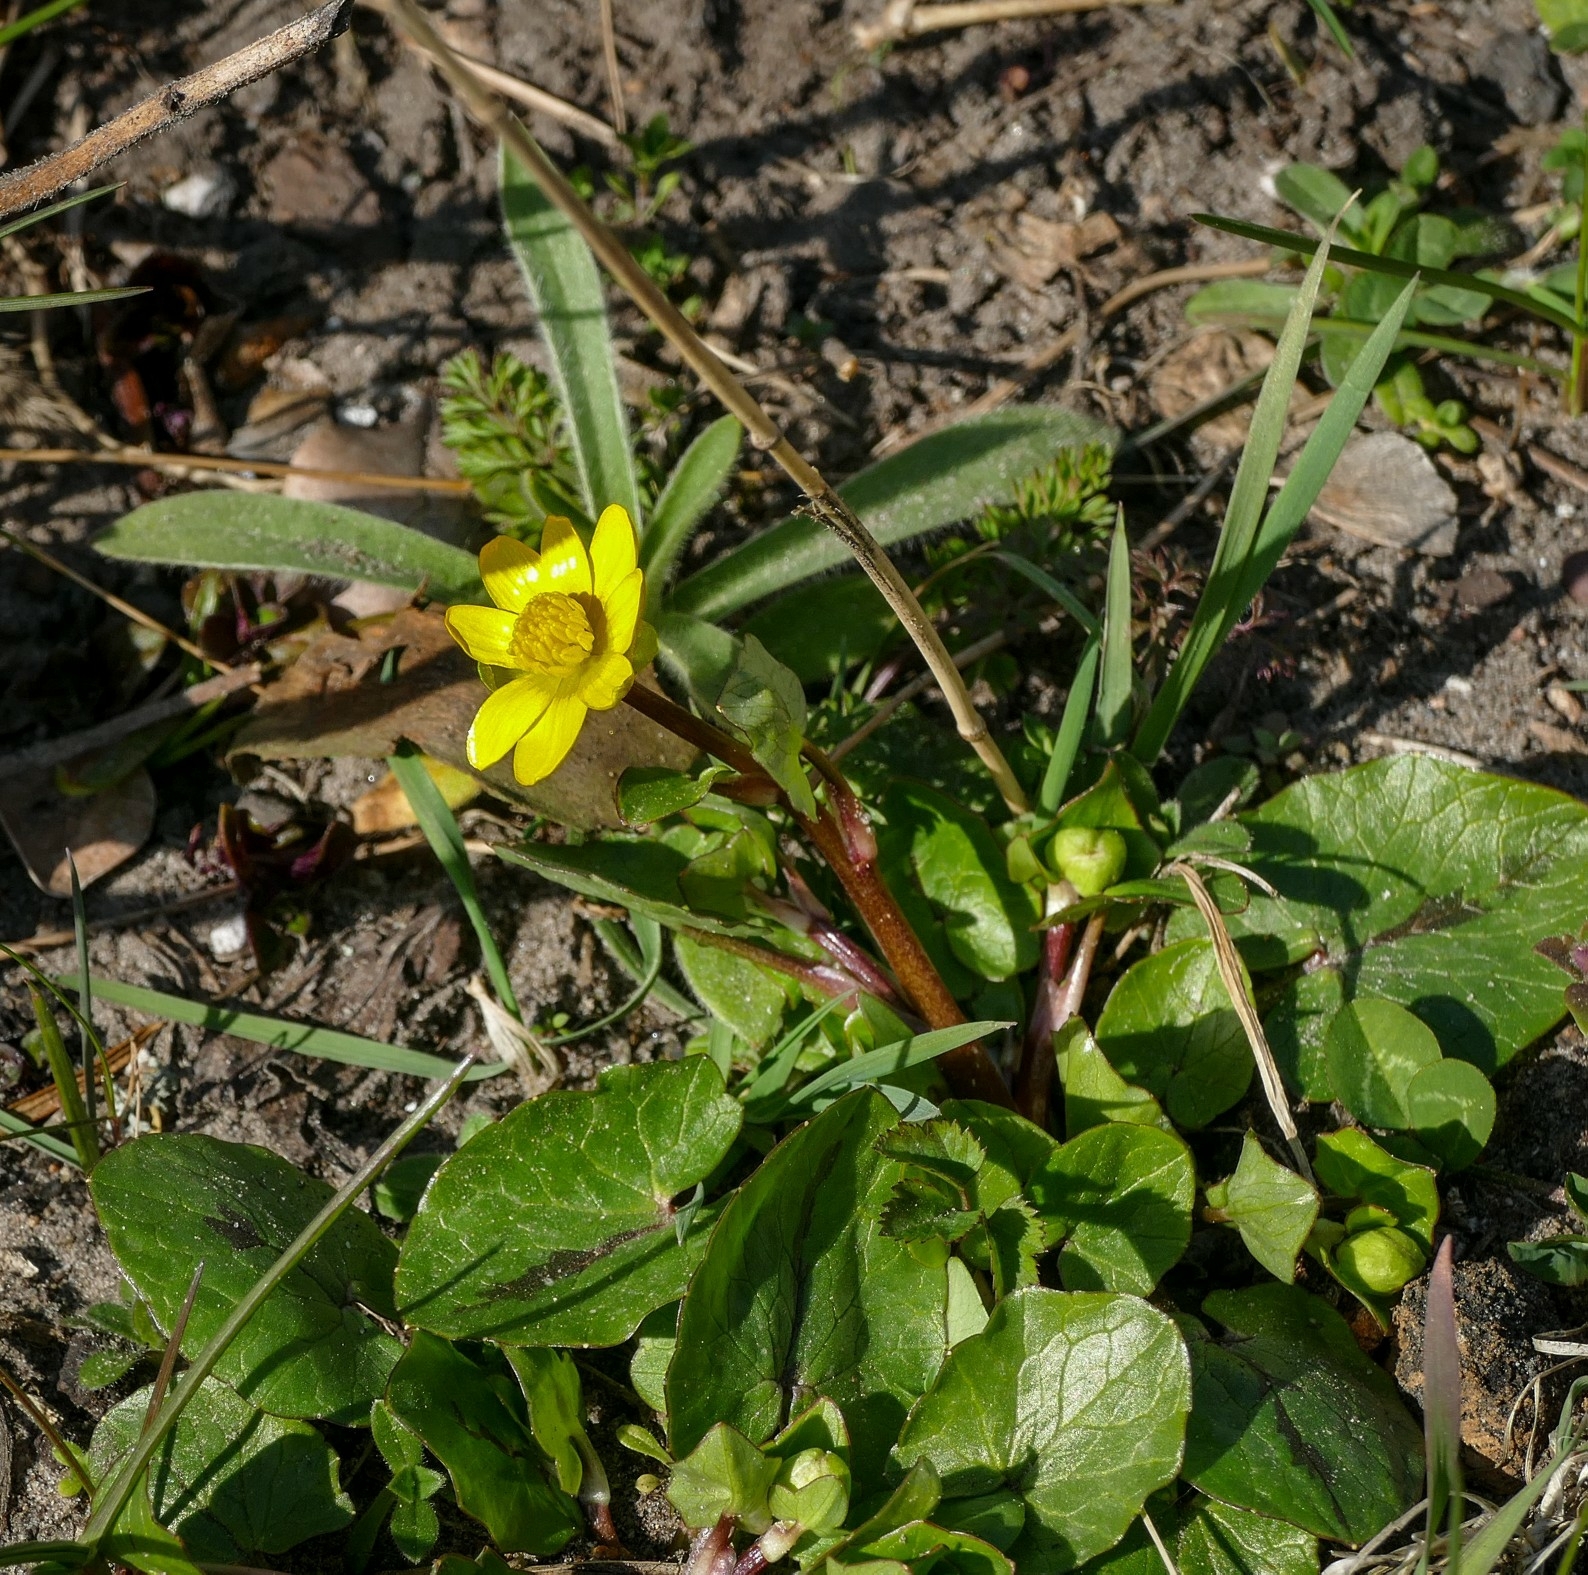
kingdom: Plantae
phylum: Tracheophyta
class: Magnoliopsida
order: Ranunculales
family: Ranunculaceae
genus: Ficaria
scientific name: Ficaria verna
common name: Lesser celandine
